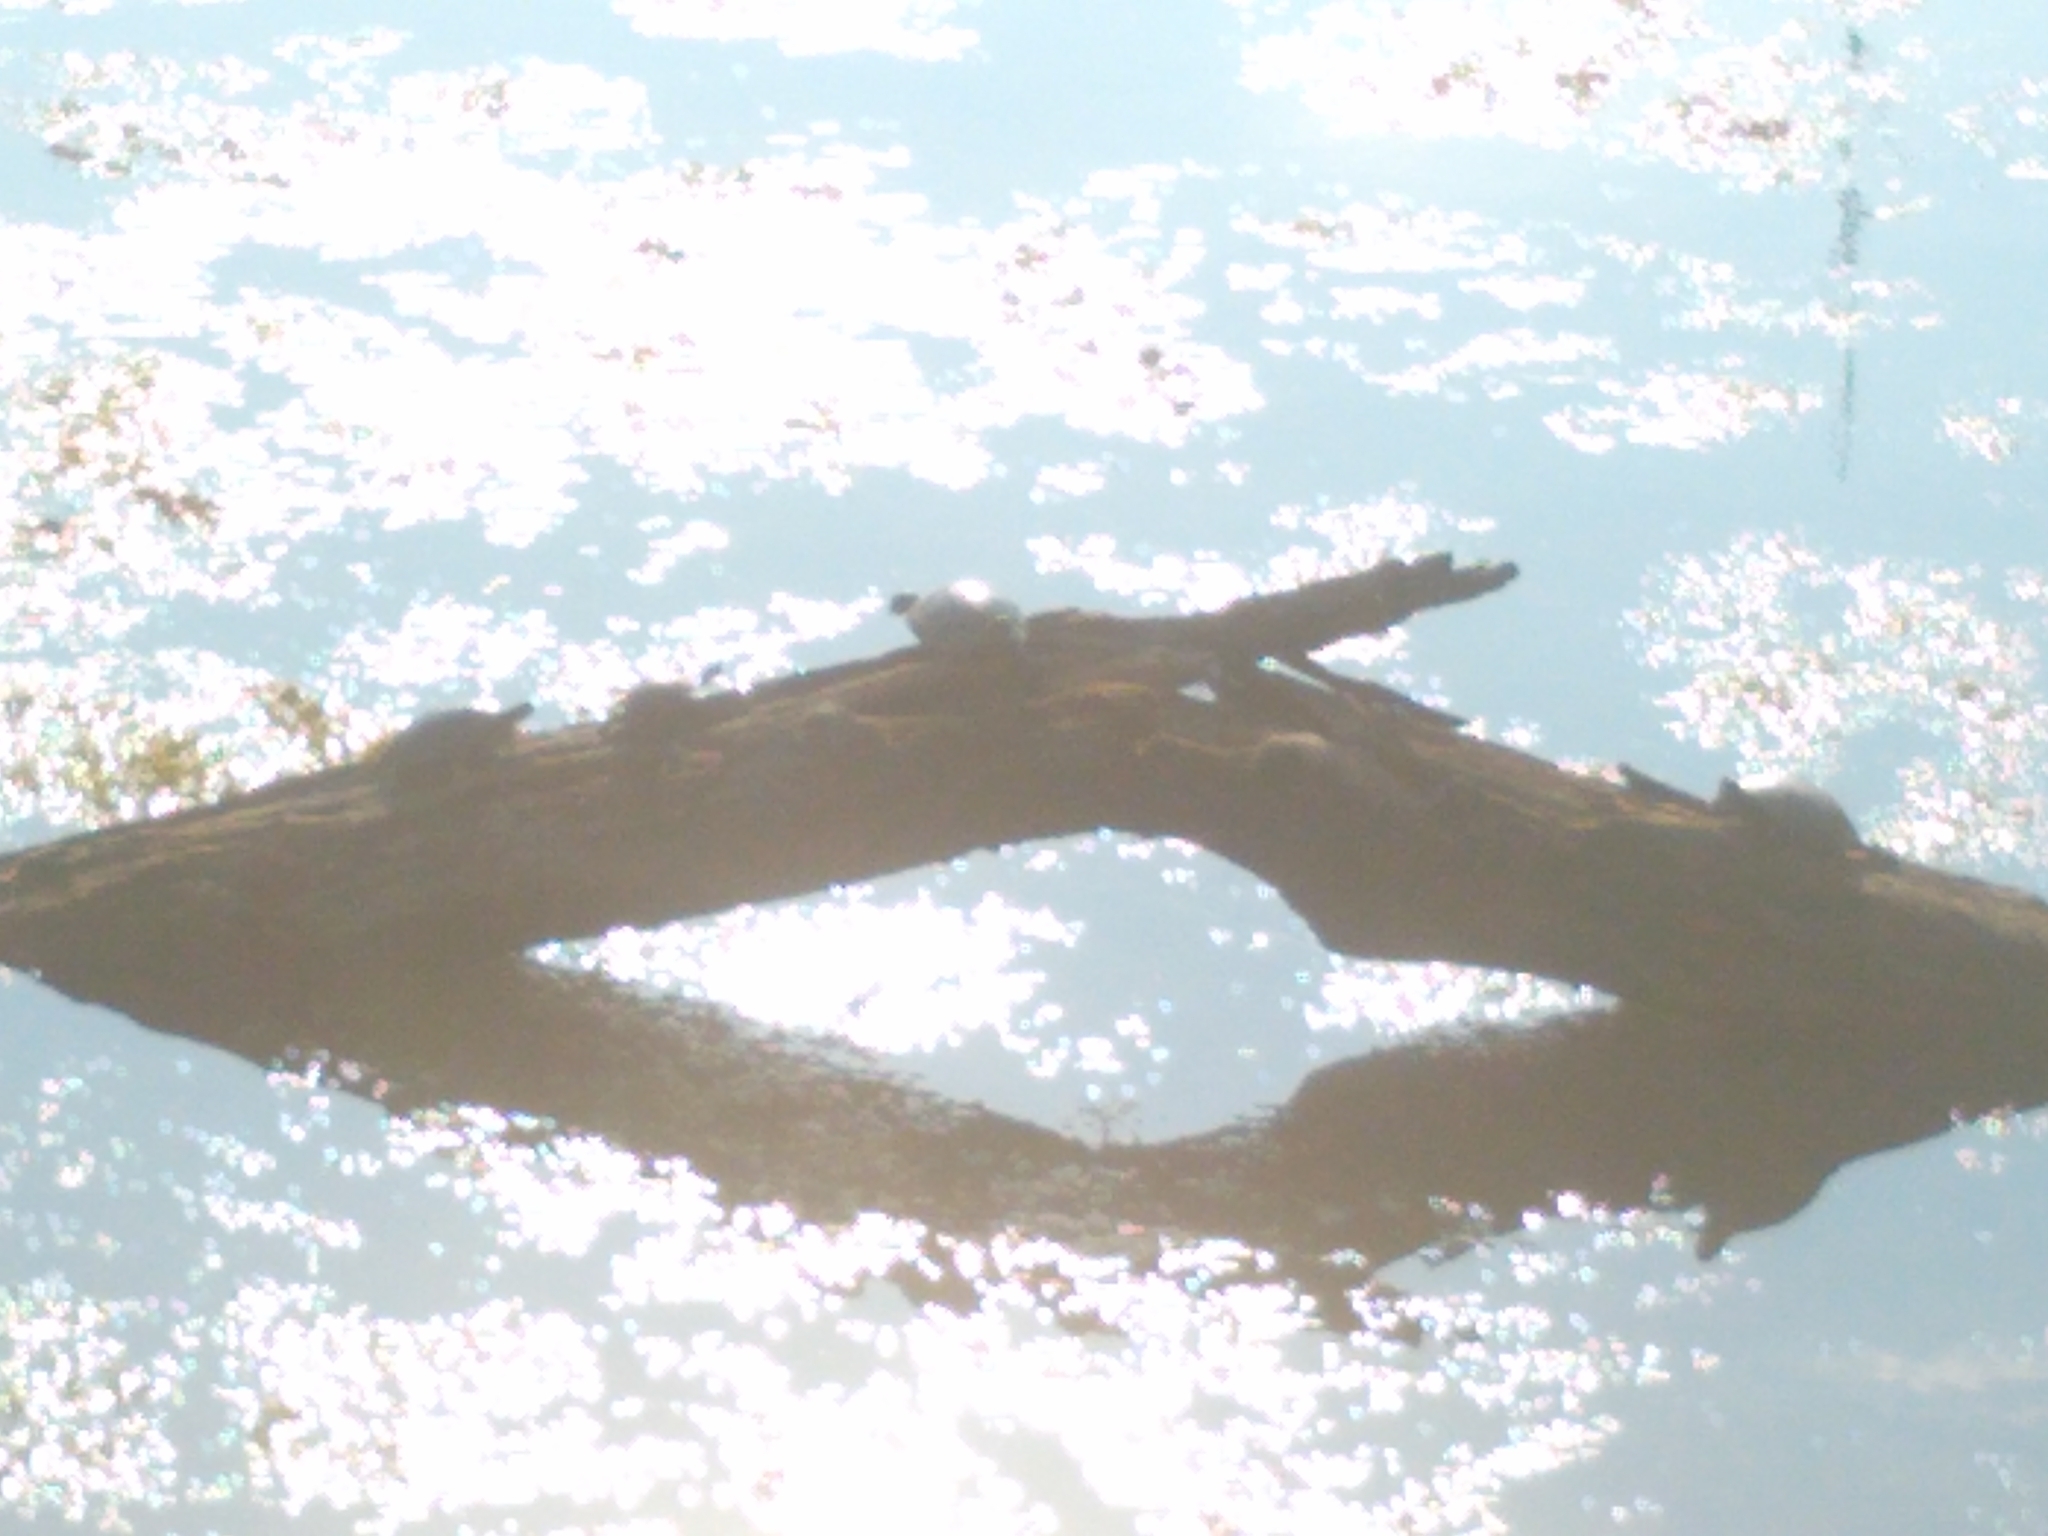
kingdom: Animalia
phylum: Chordata
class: Testudines
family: Emydidae
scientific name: Emydidae
